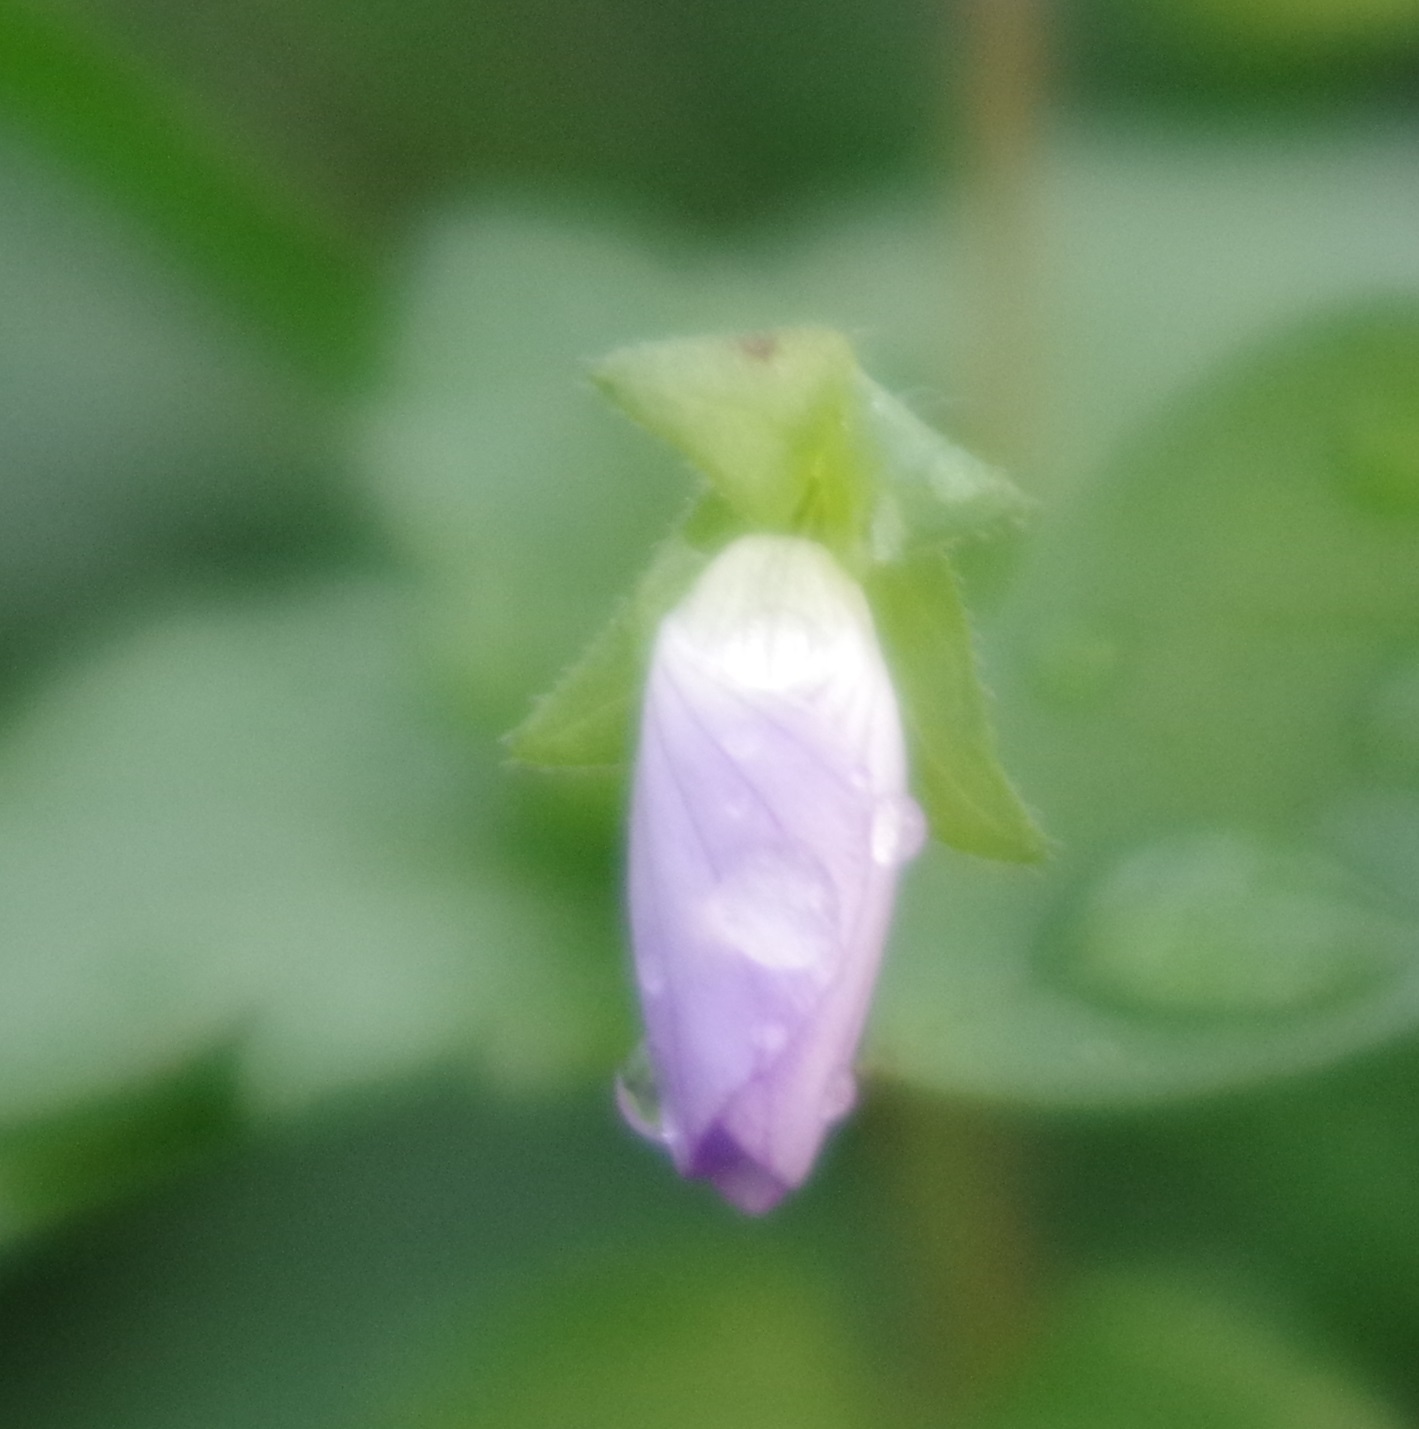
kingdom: Plantae
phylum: Tracheophyta
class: Magnoliopsida
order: Lamiales
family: Plantaginaceae
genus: Veronica
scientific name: Veronica persica
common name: Common field-speedwell
